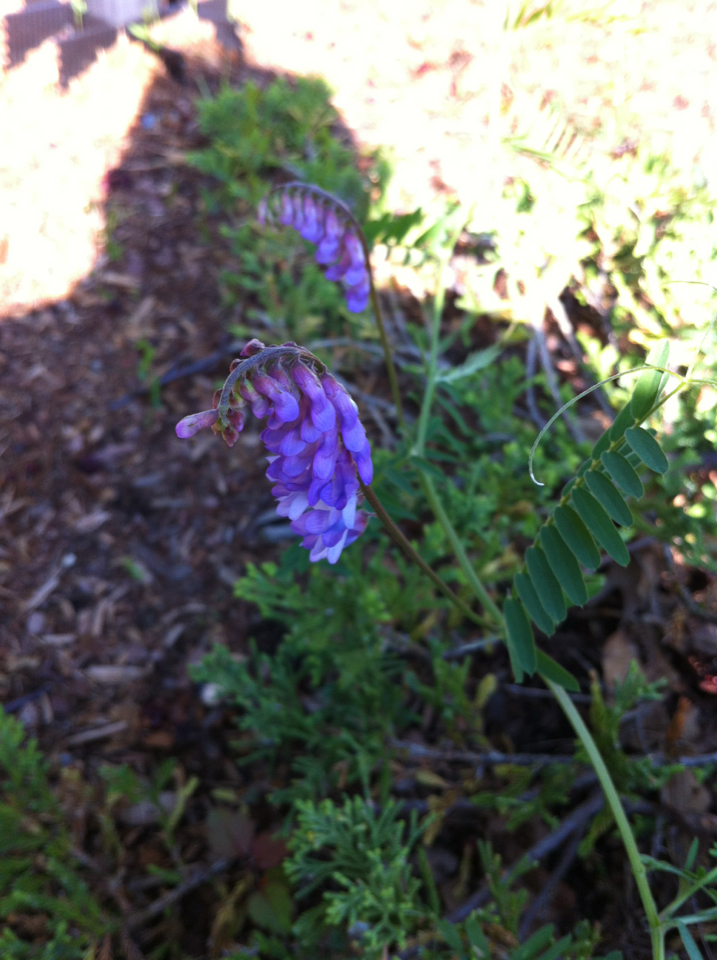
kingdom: Plantae
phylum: Tracheophyta
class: Magnoliopsida
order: Fabales
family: Fabaceae
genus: Vicia
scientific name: Vicia cracca
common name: Bird vetch
